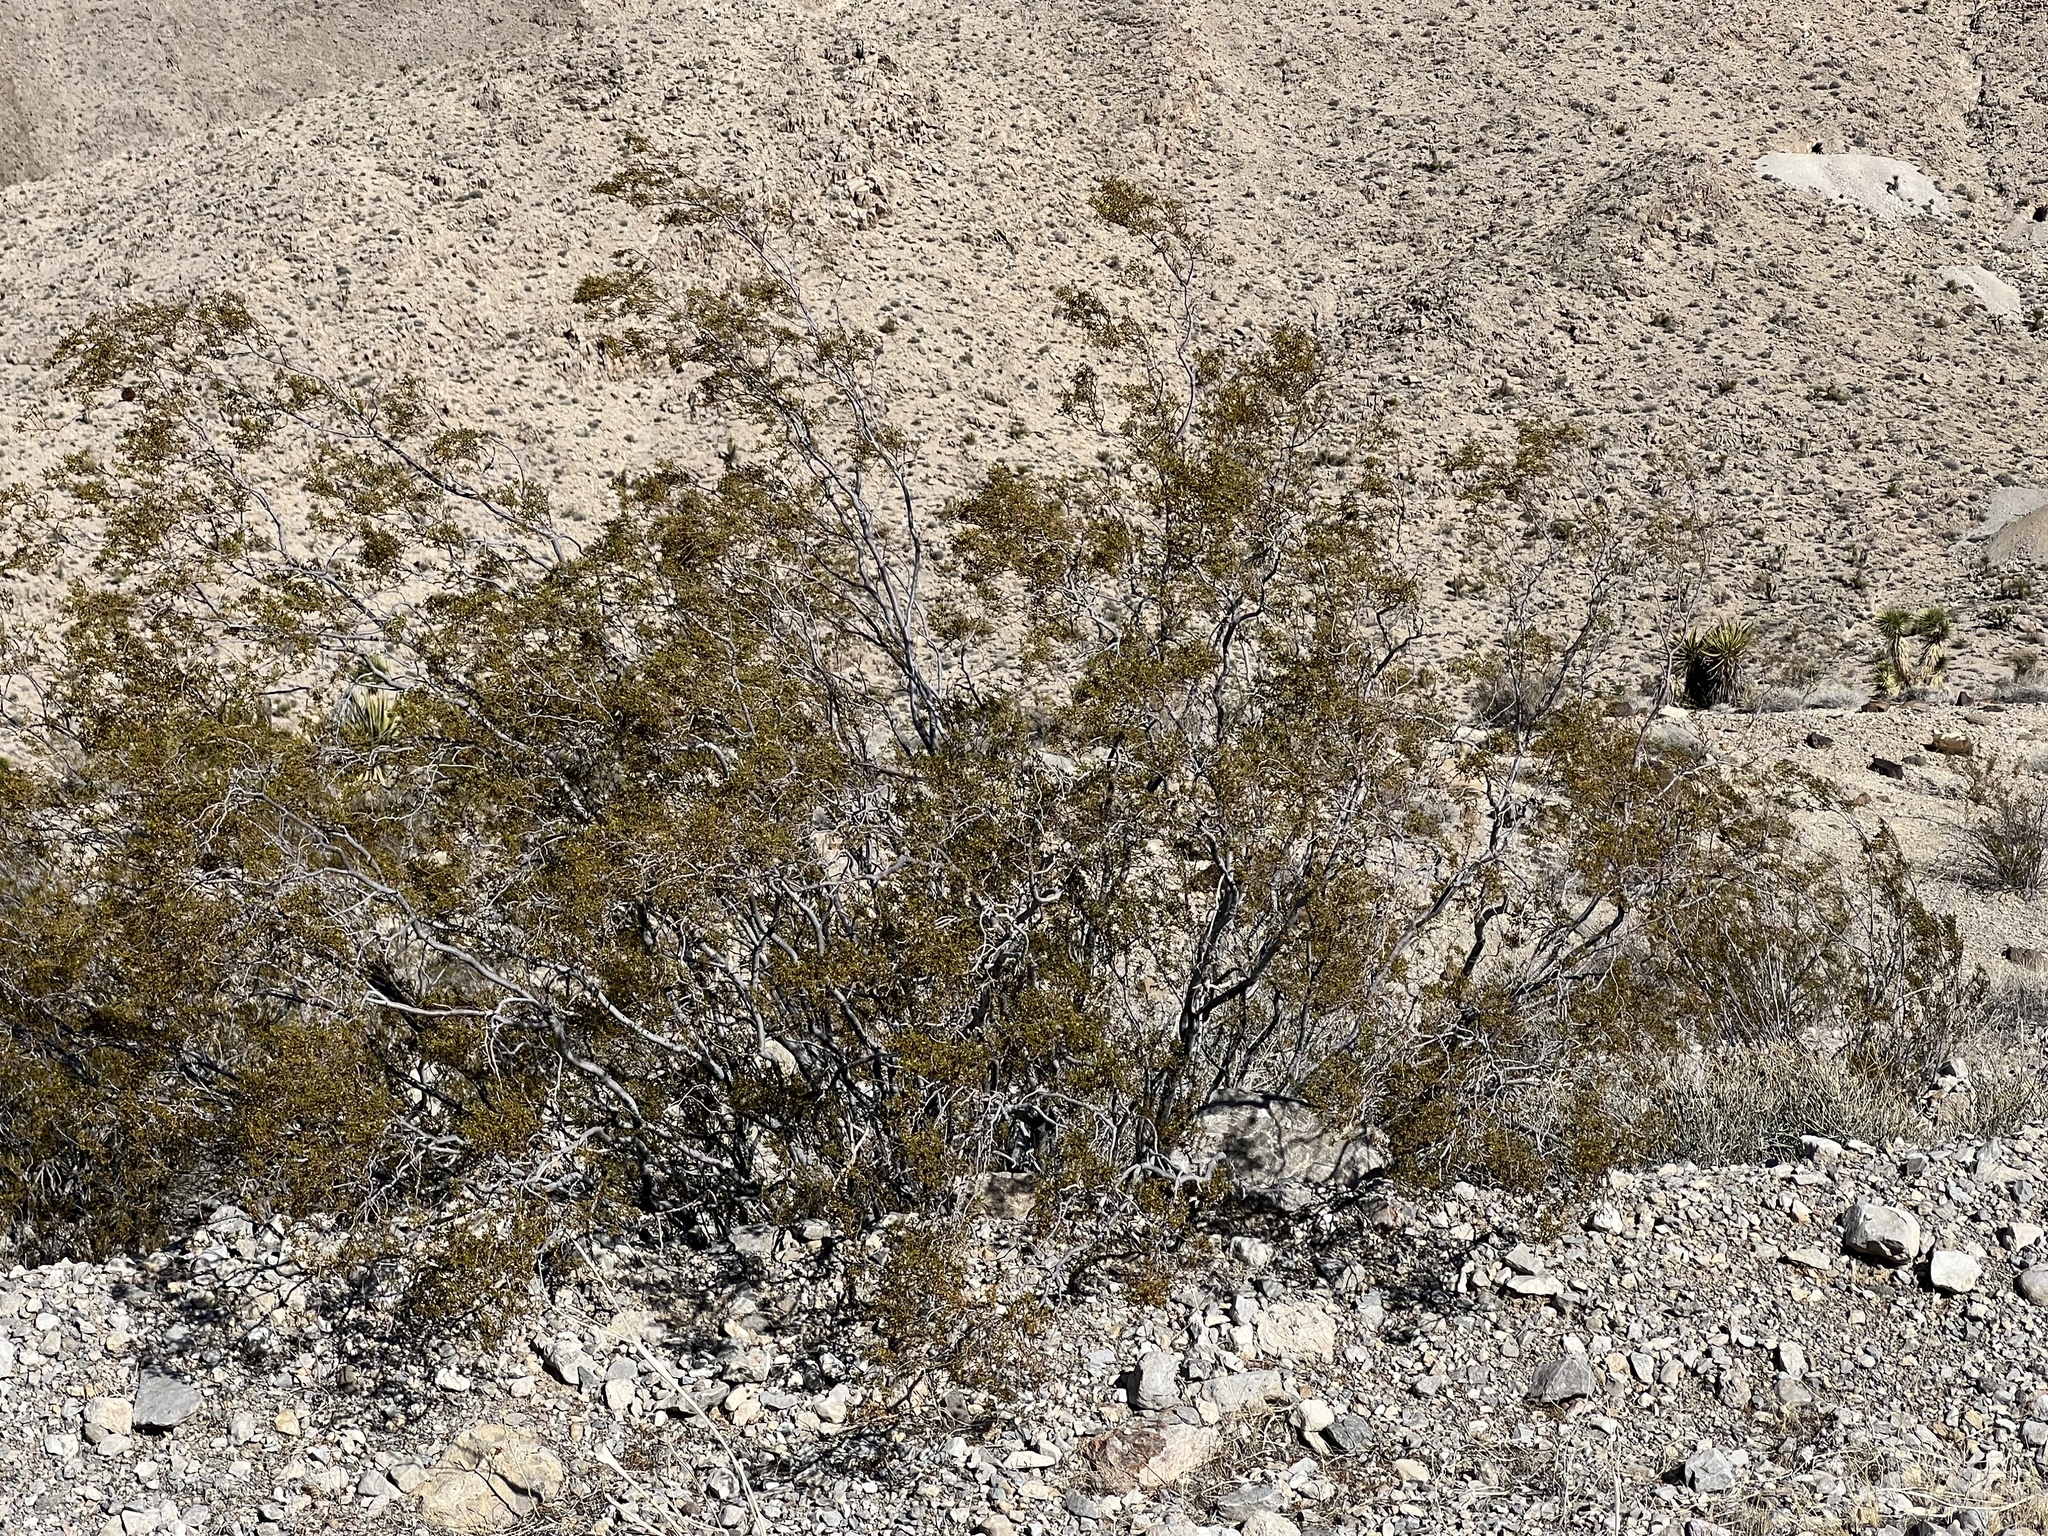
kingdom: Plantae
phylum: Tracheophyta
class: Magnoliopsida
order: Zygophyllales
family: Zygophyllaceae
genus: Larrea
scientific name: Larrea tridentata
